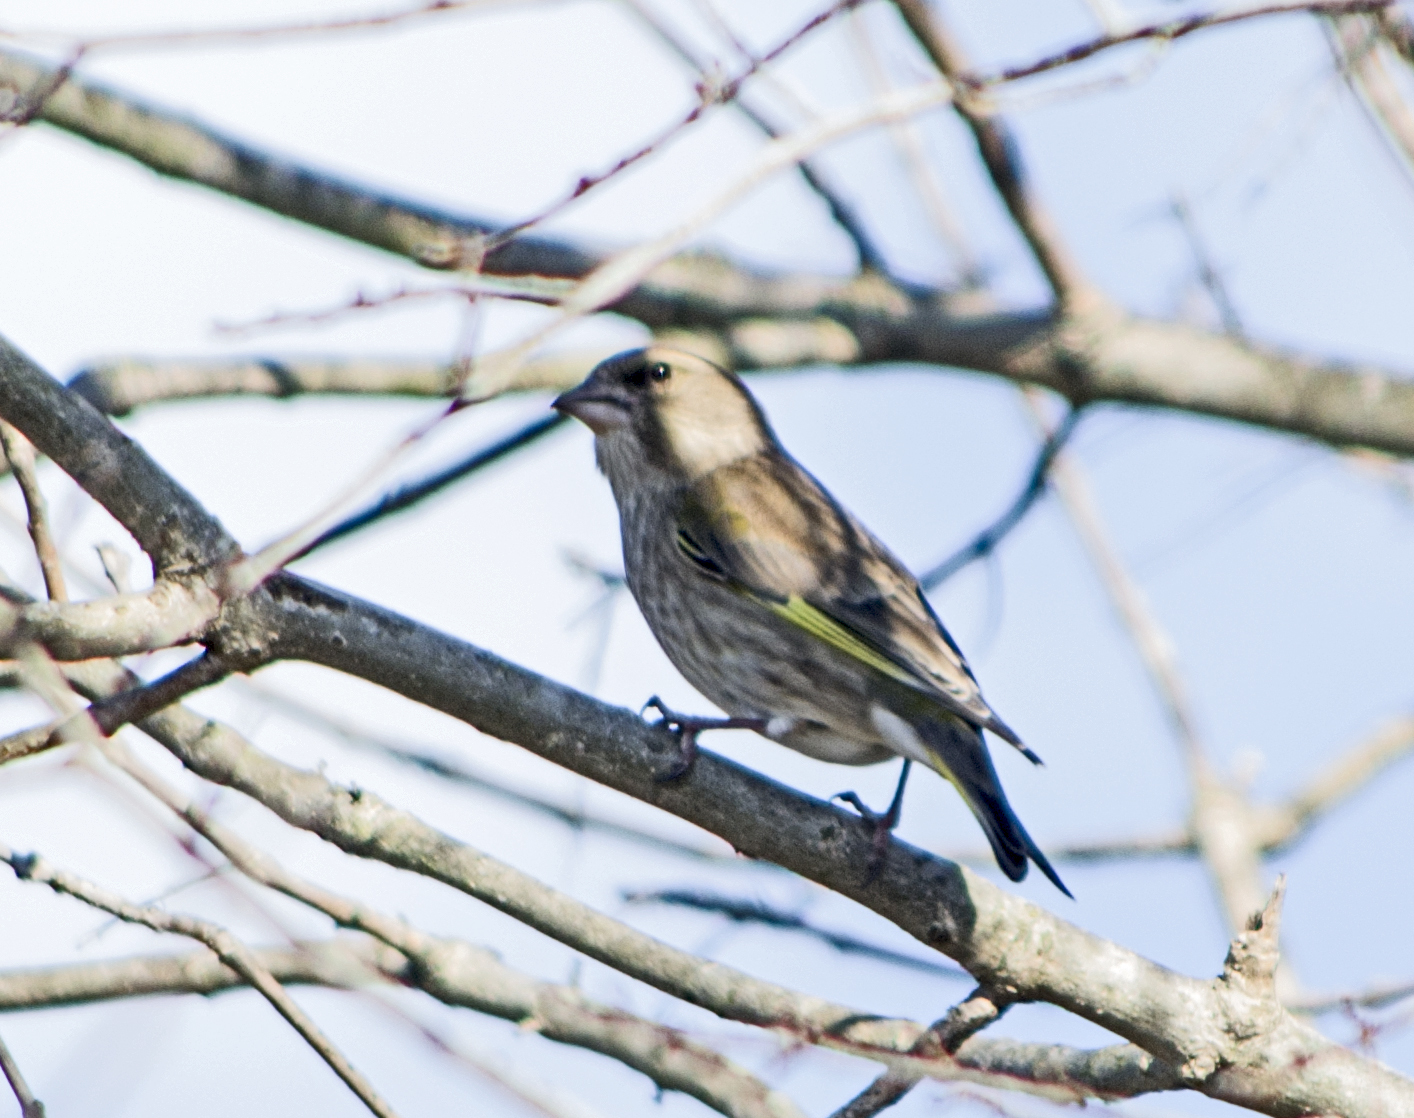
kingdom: Plantae
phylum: Tracheophyta
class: Liliopsida
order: Poales
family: Poaceae
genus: Chloris
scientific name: Chloris chloris
